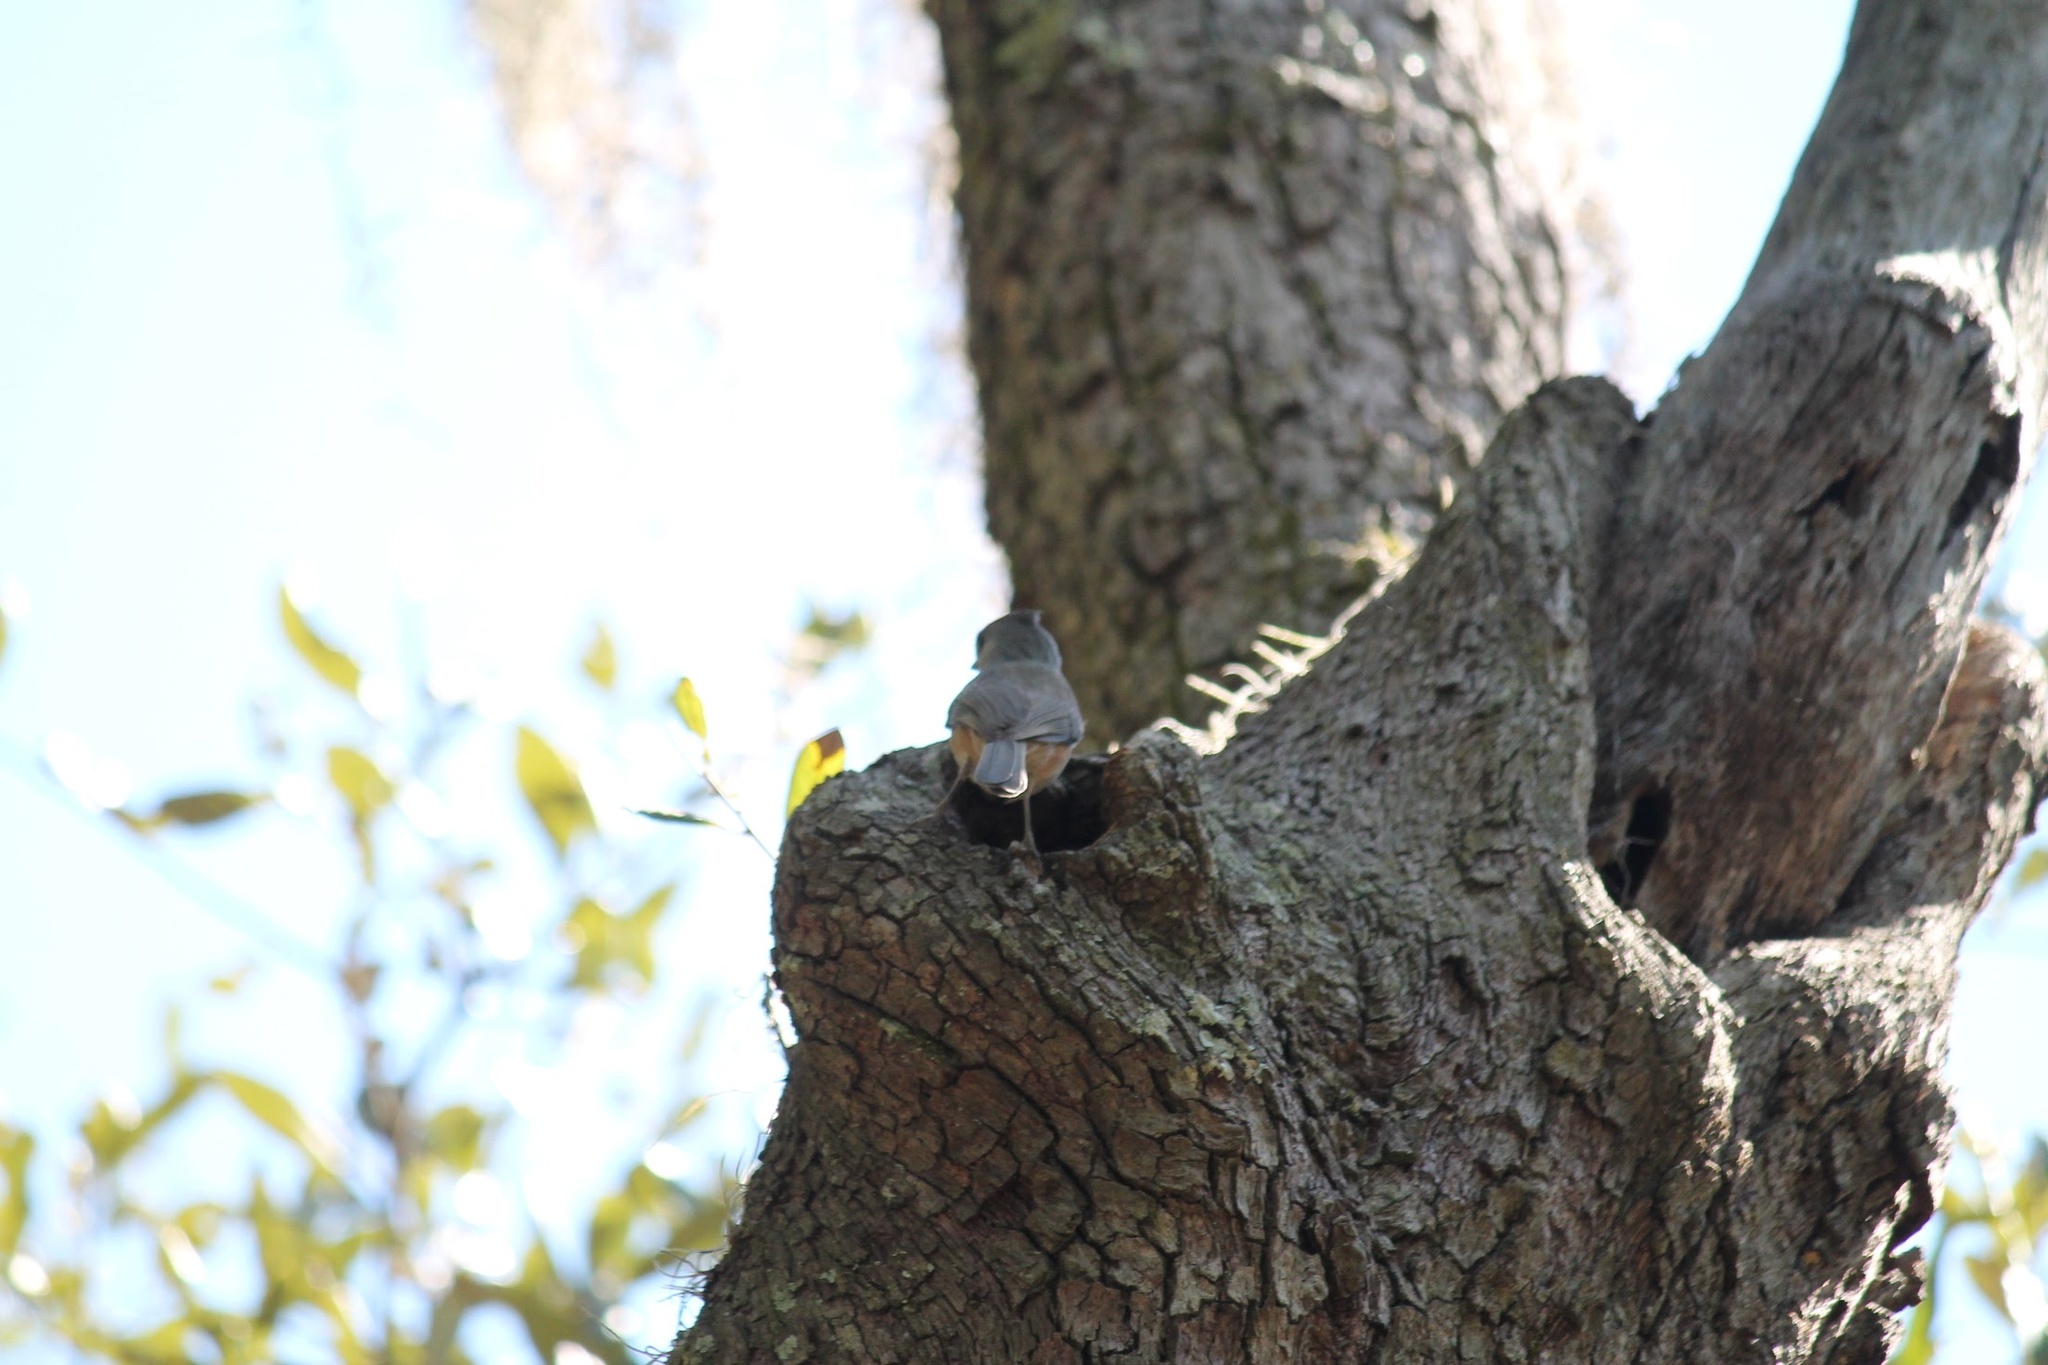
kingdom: Animalia
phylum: Chordata
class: Aves
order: Passeriformes
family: Paridae
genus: Baeolophus
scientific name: Baeolophus bicolor
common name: Tufted titmouse
